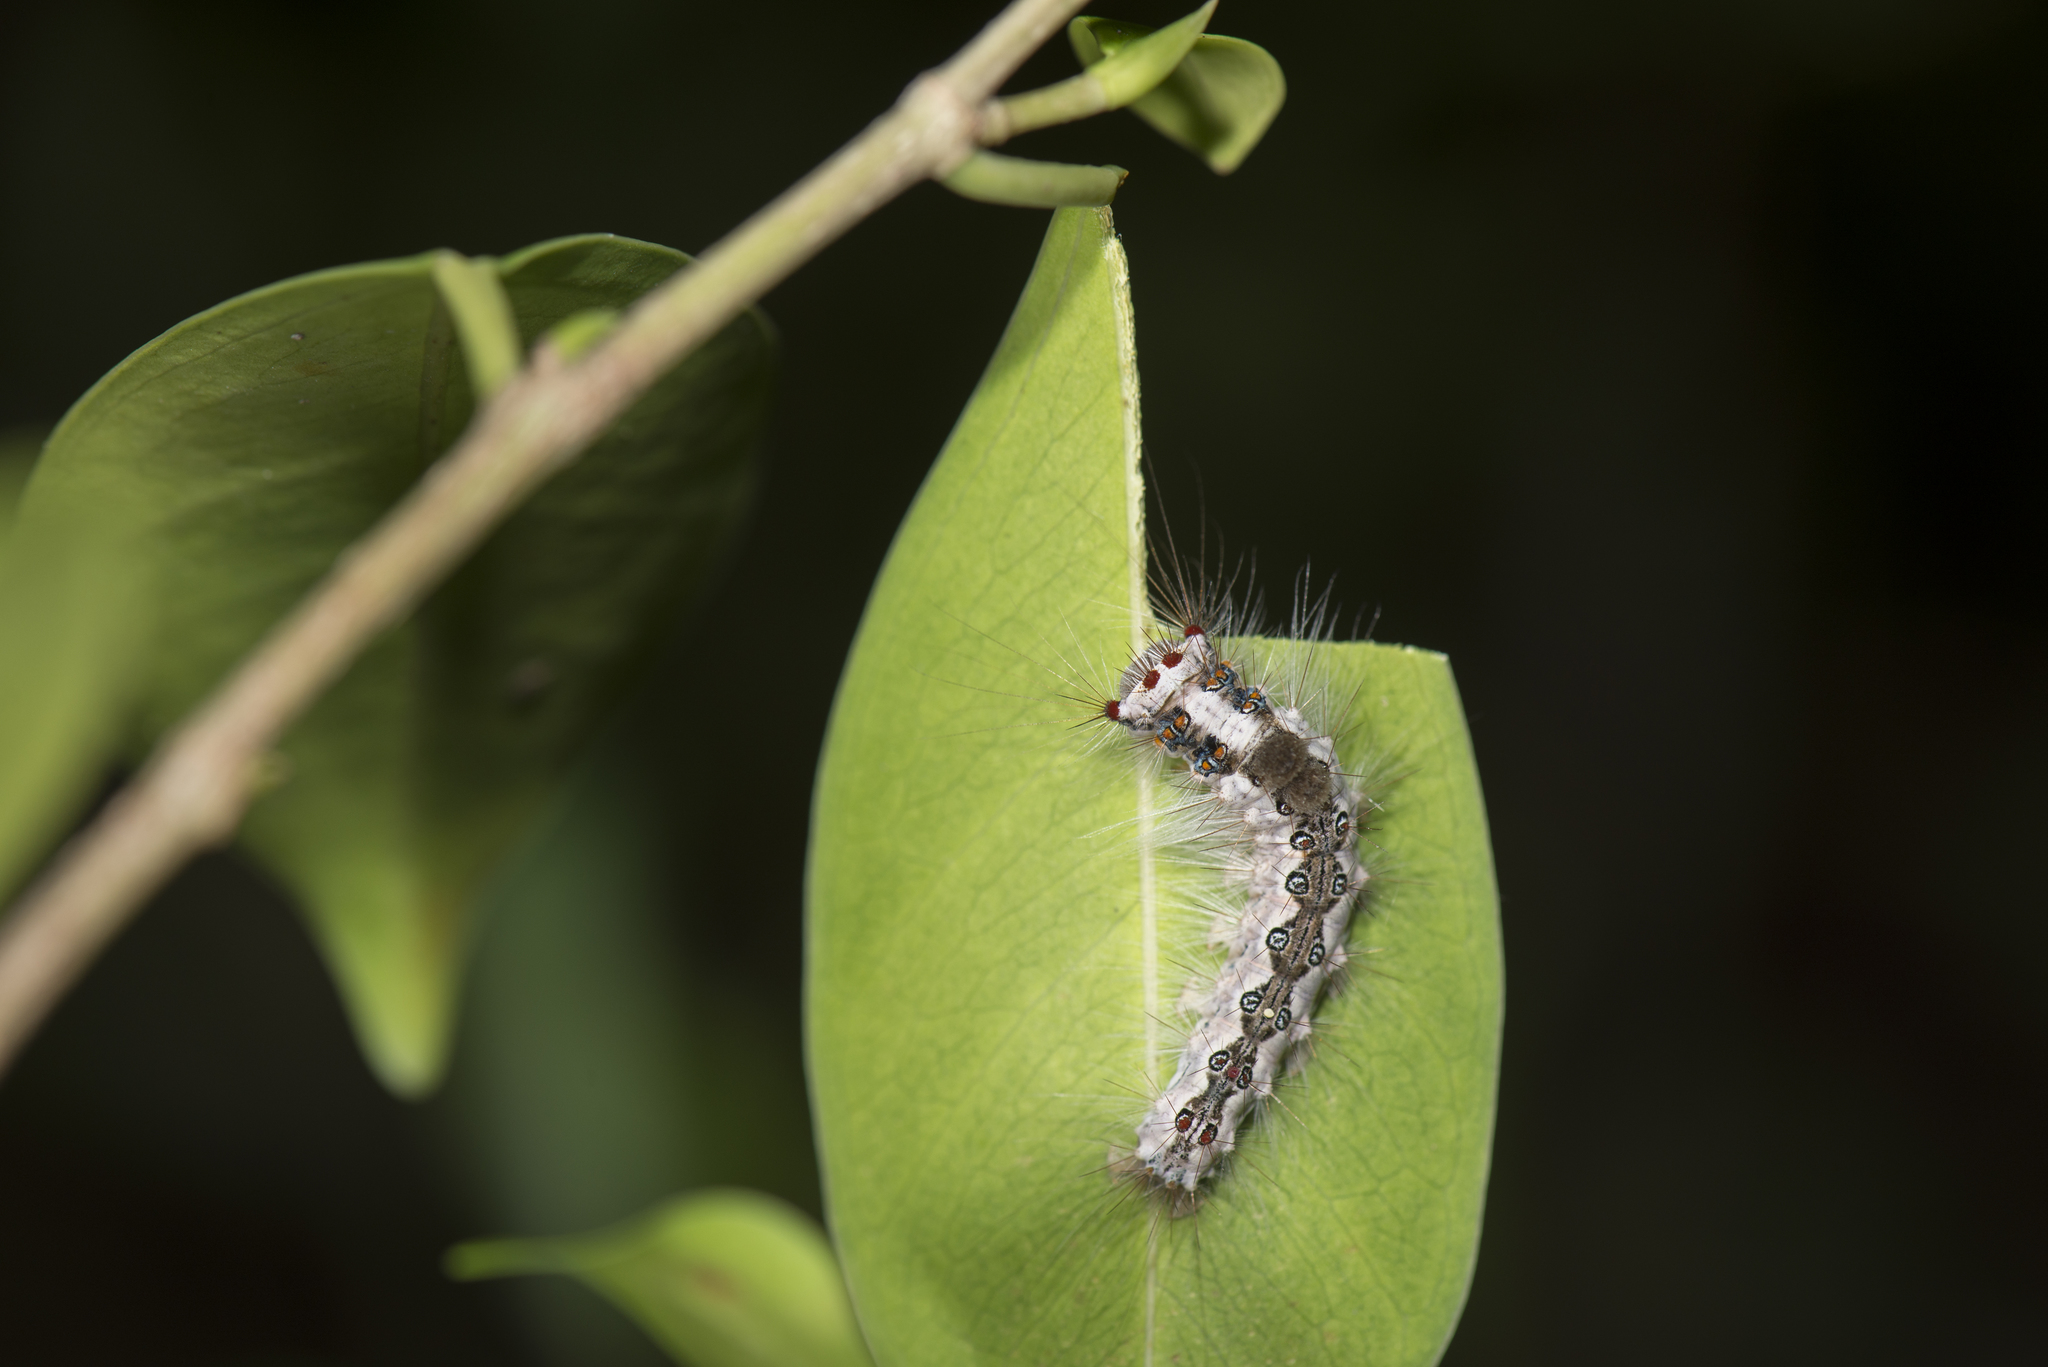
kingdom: Animalia
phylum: Arthropoda
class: Insecta
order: Lepidoptera
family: Erebidae
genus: Perina
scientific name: Perina nuda
